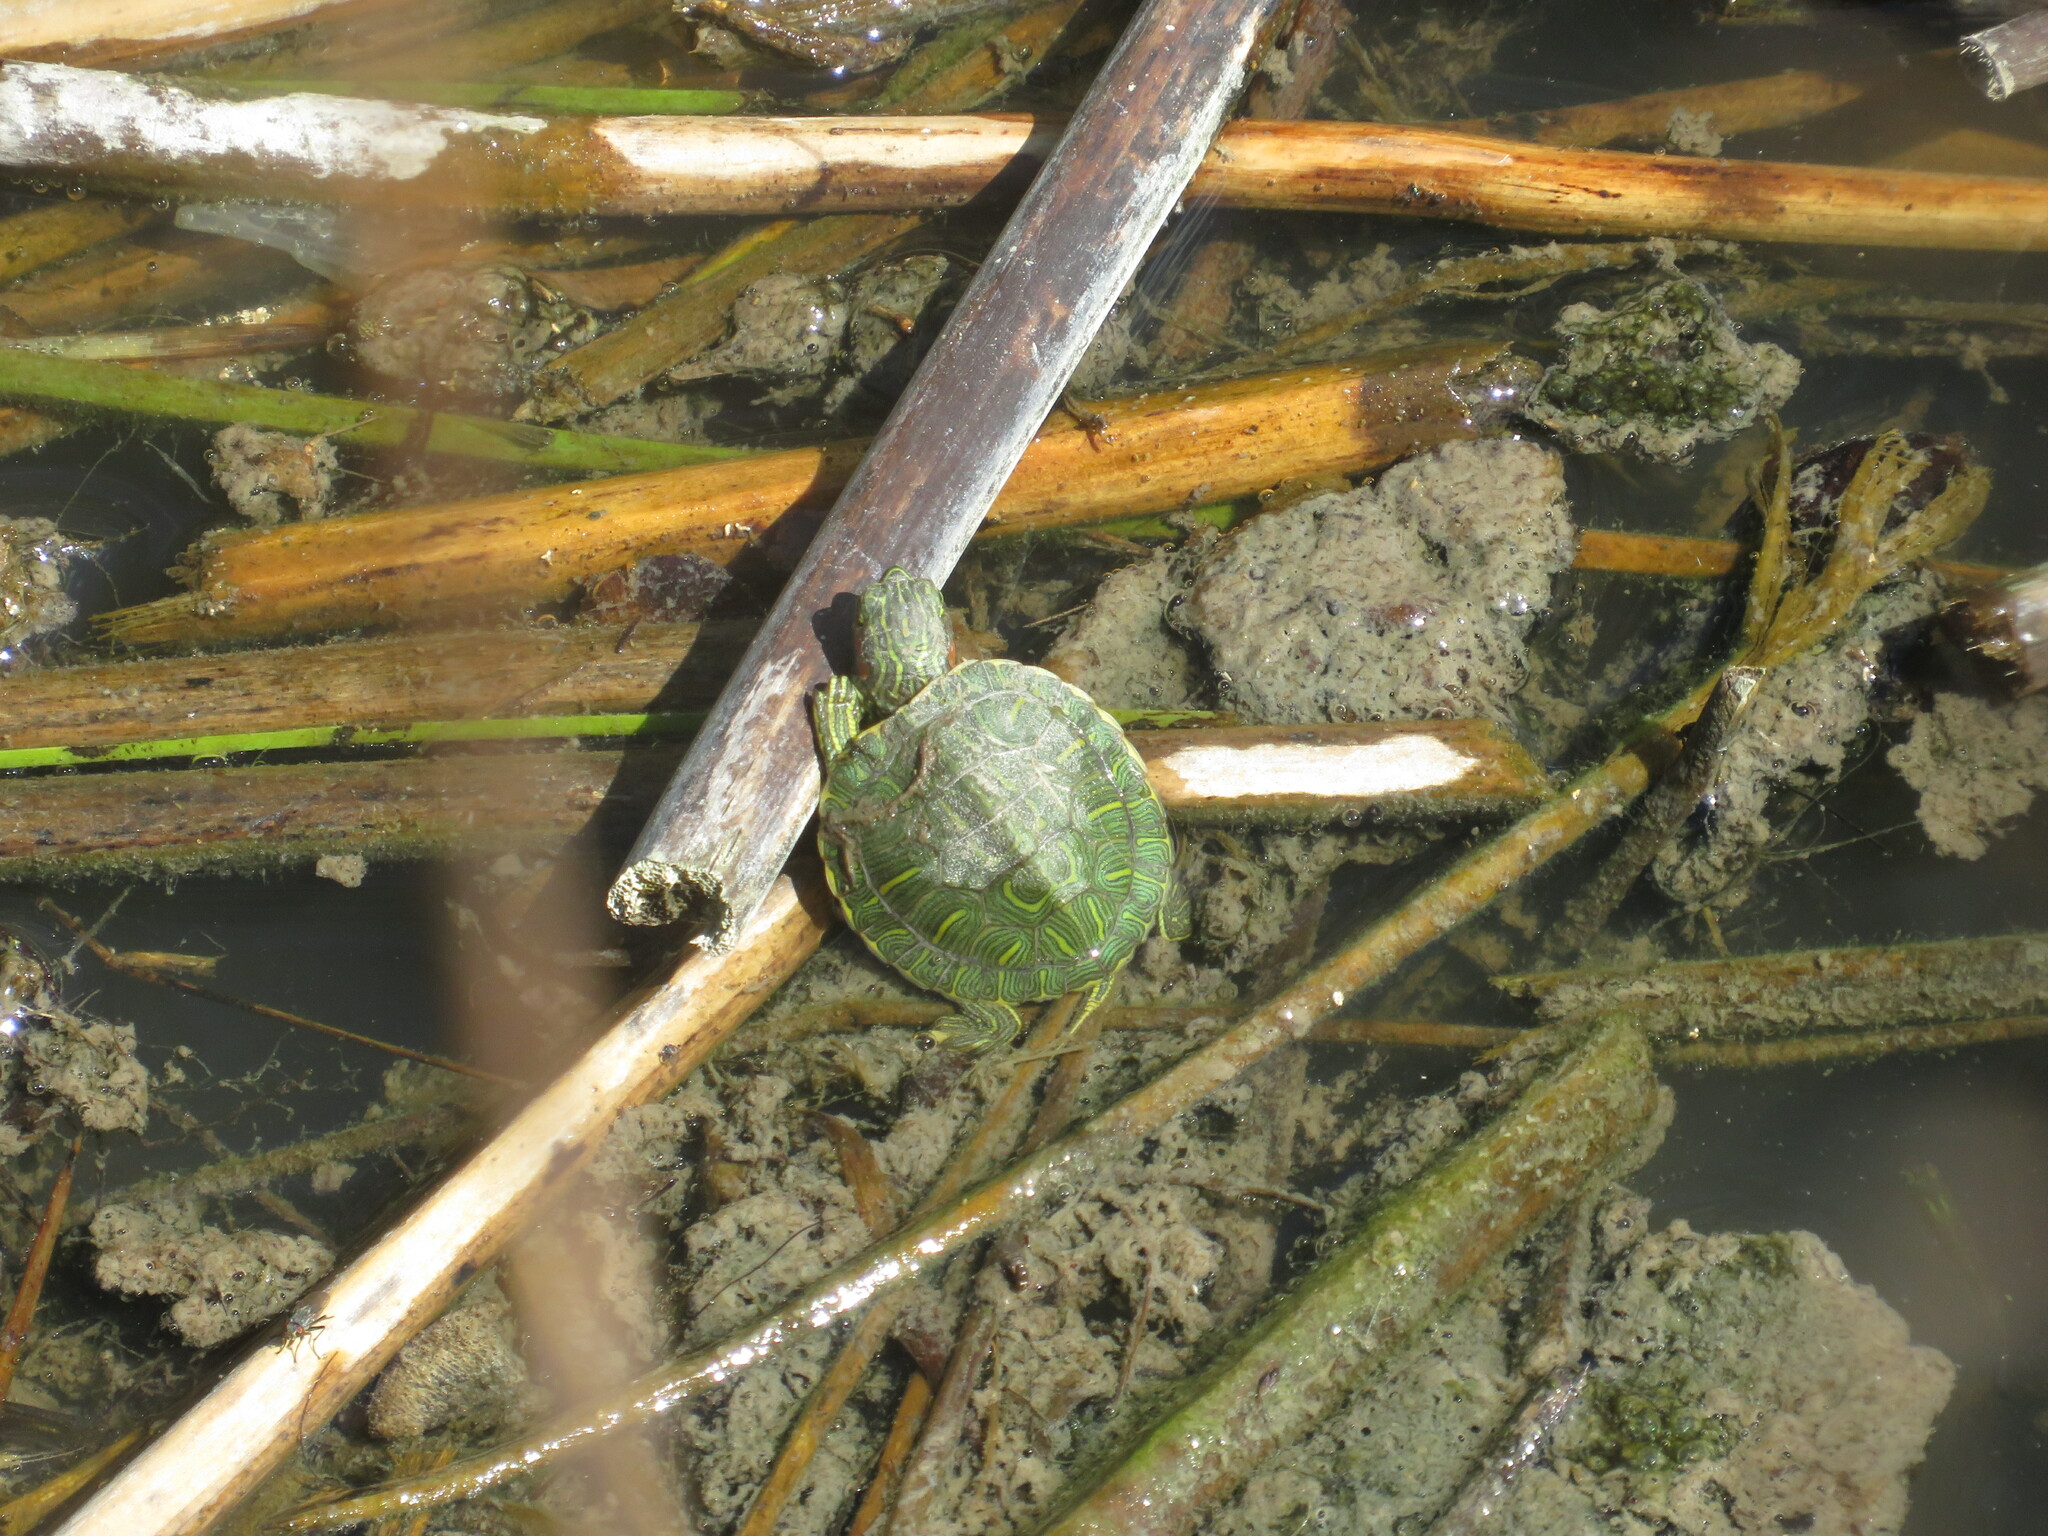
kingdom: Animalia
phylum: Chordata
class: Testudines
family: Emydidae
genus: Trachemys
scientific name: Trachemys scripta
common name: Slider
